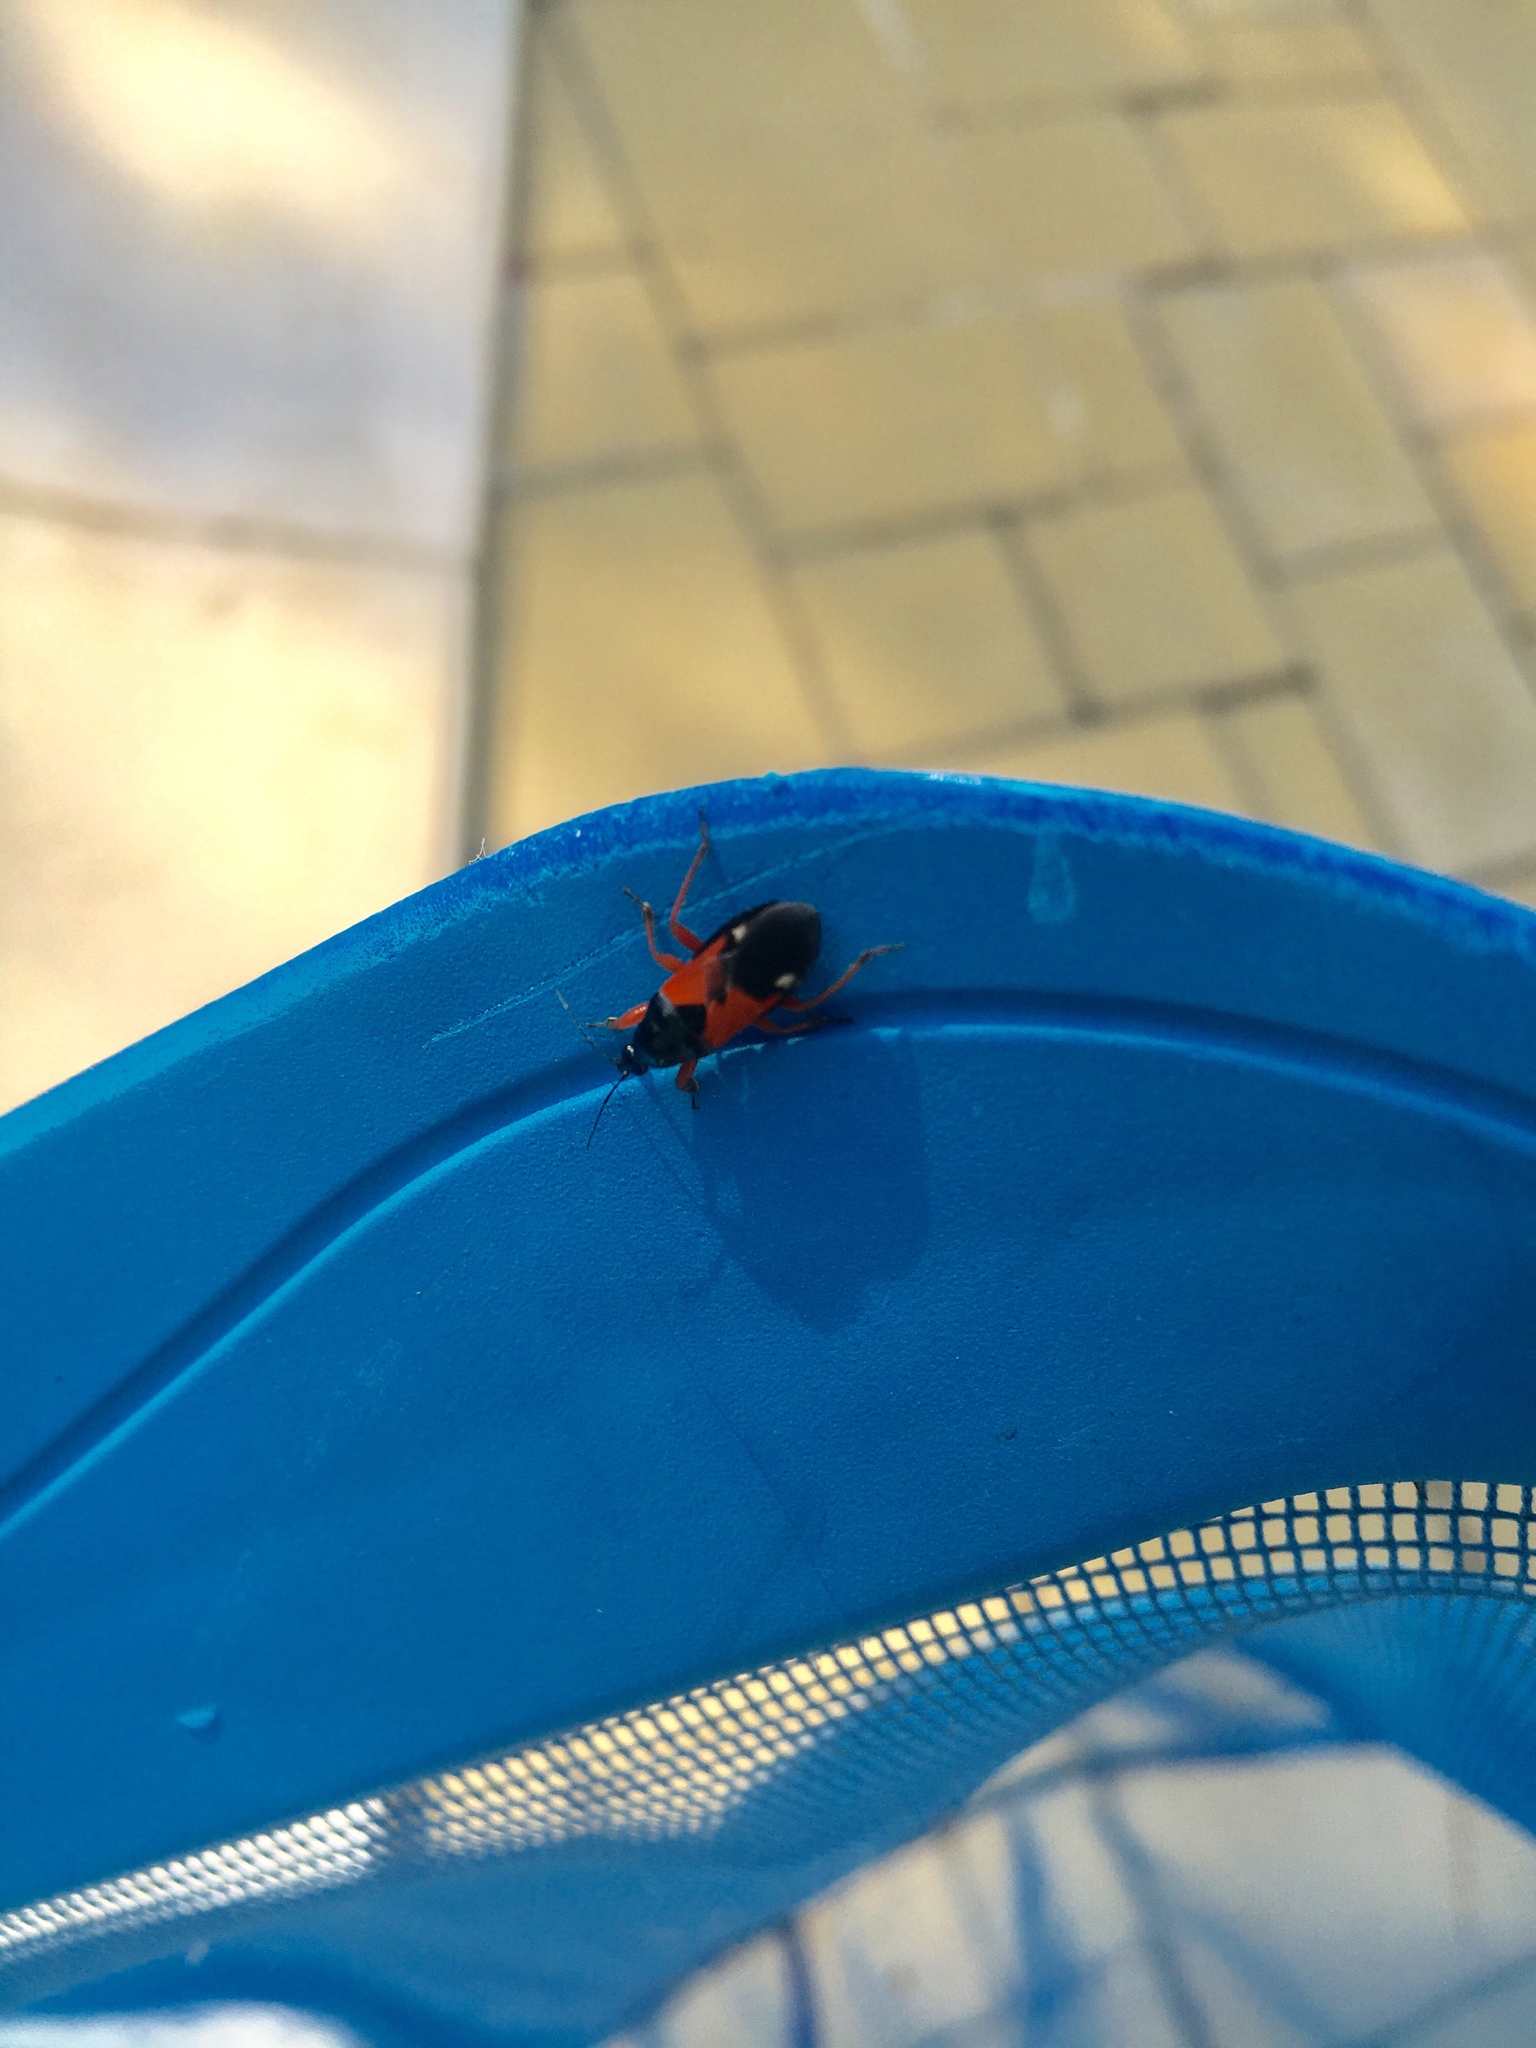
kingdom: Animalia
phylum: Arthropoda
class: Insecta
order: Hemiptera
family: Nabidae
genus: Prostemma
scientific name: Prostemma guttula
